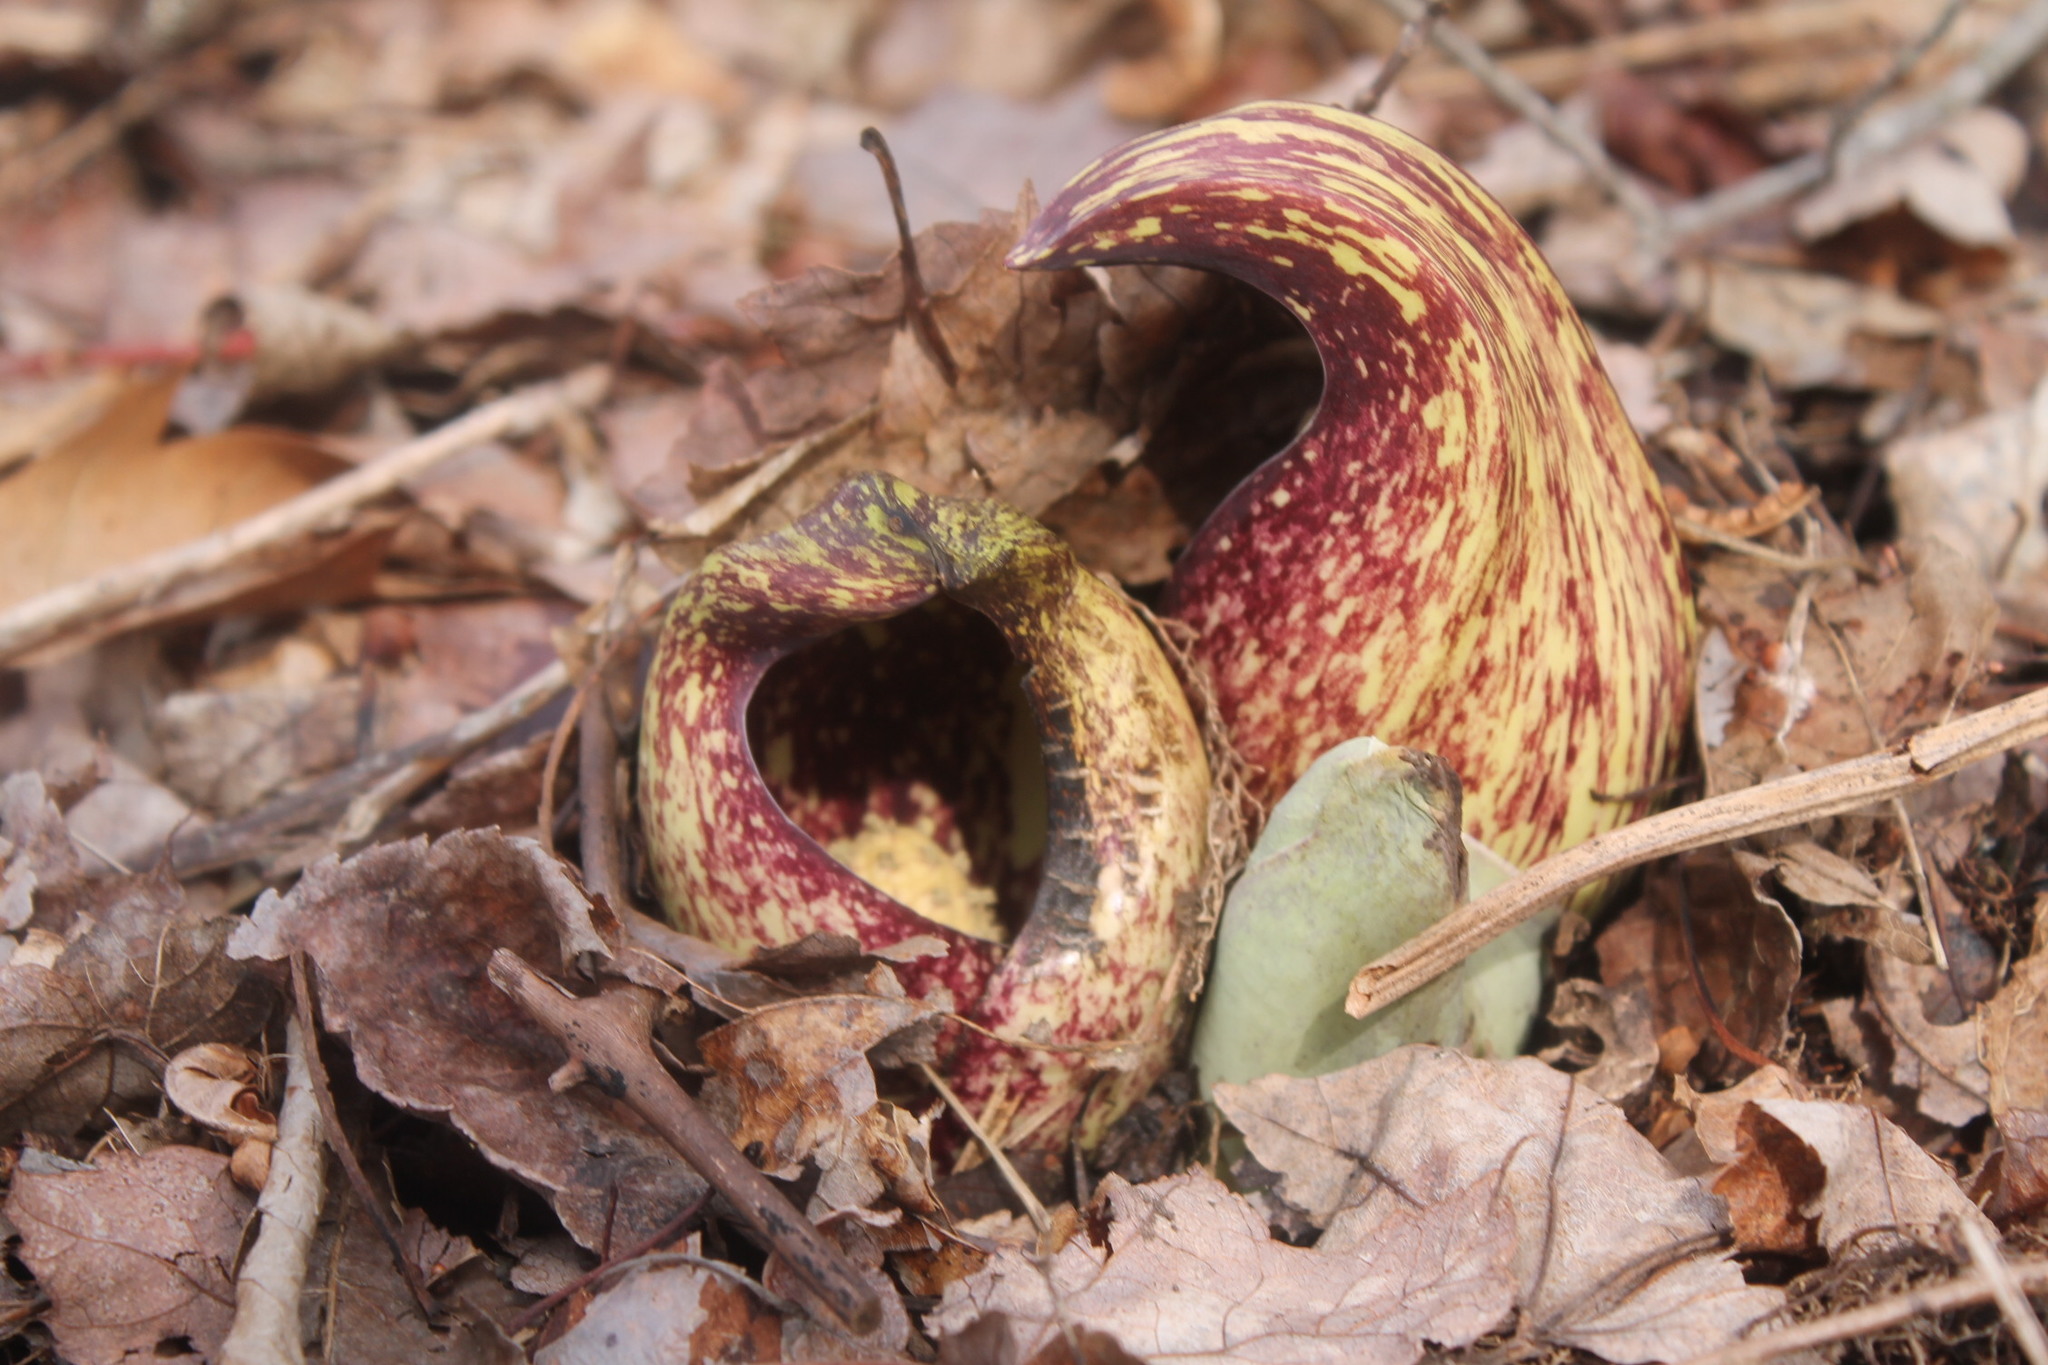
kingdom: Plantae
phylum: Tracheophyta
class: Liliopsida
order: Alismatales
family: Araceae
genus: Symplocarpus
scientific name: Symplocarpus foetidus
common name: Eastern skunk cabbage
